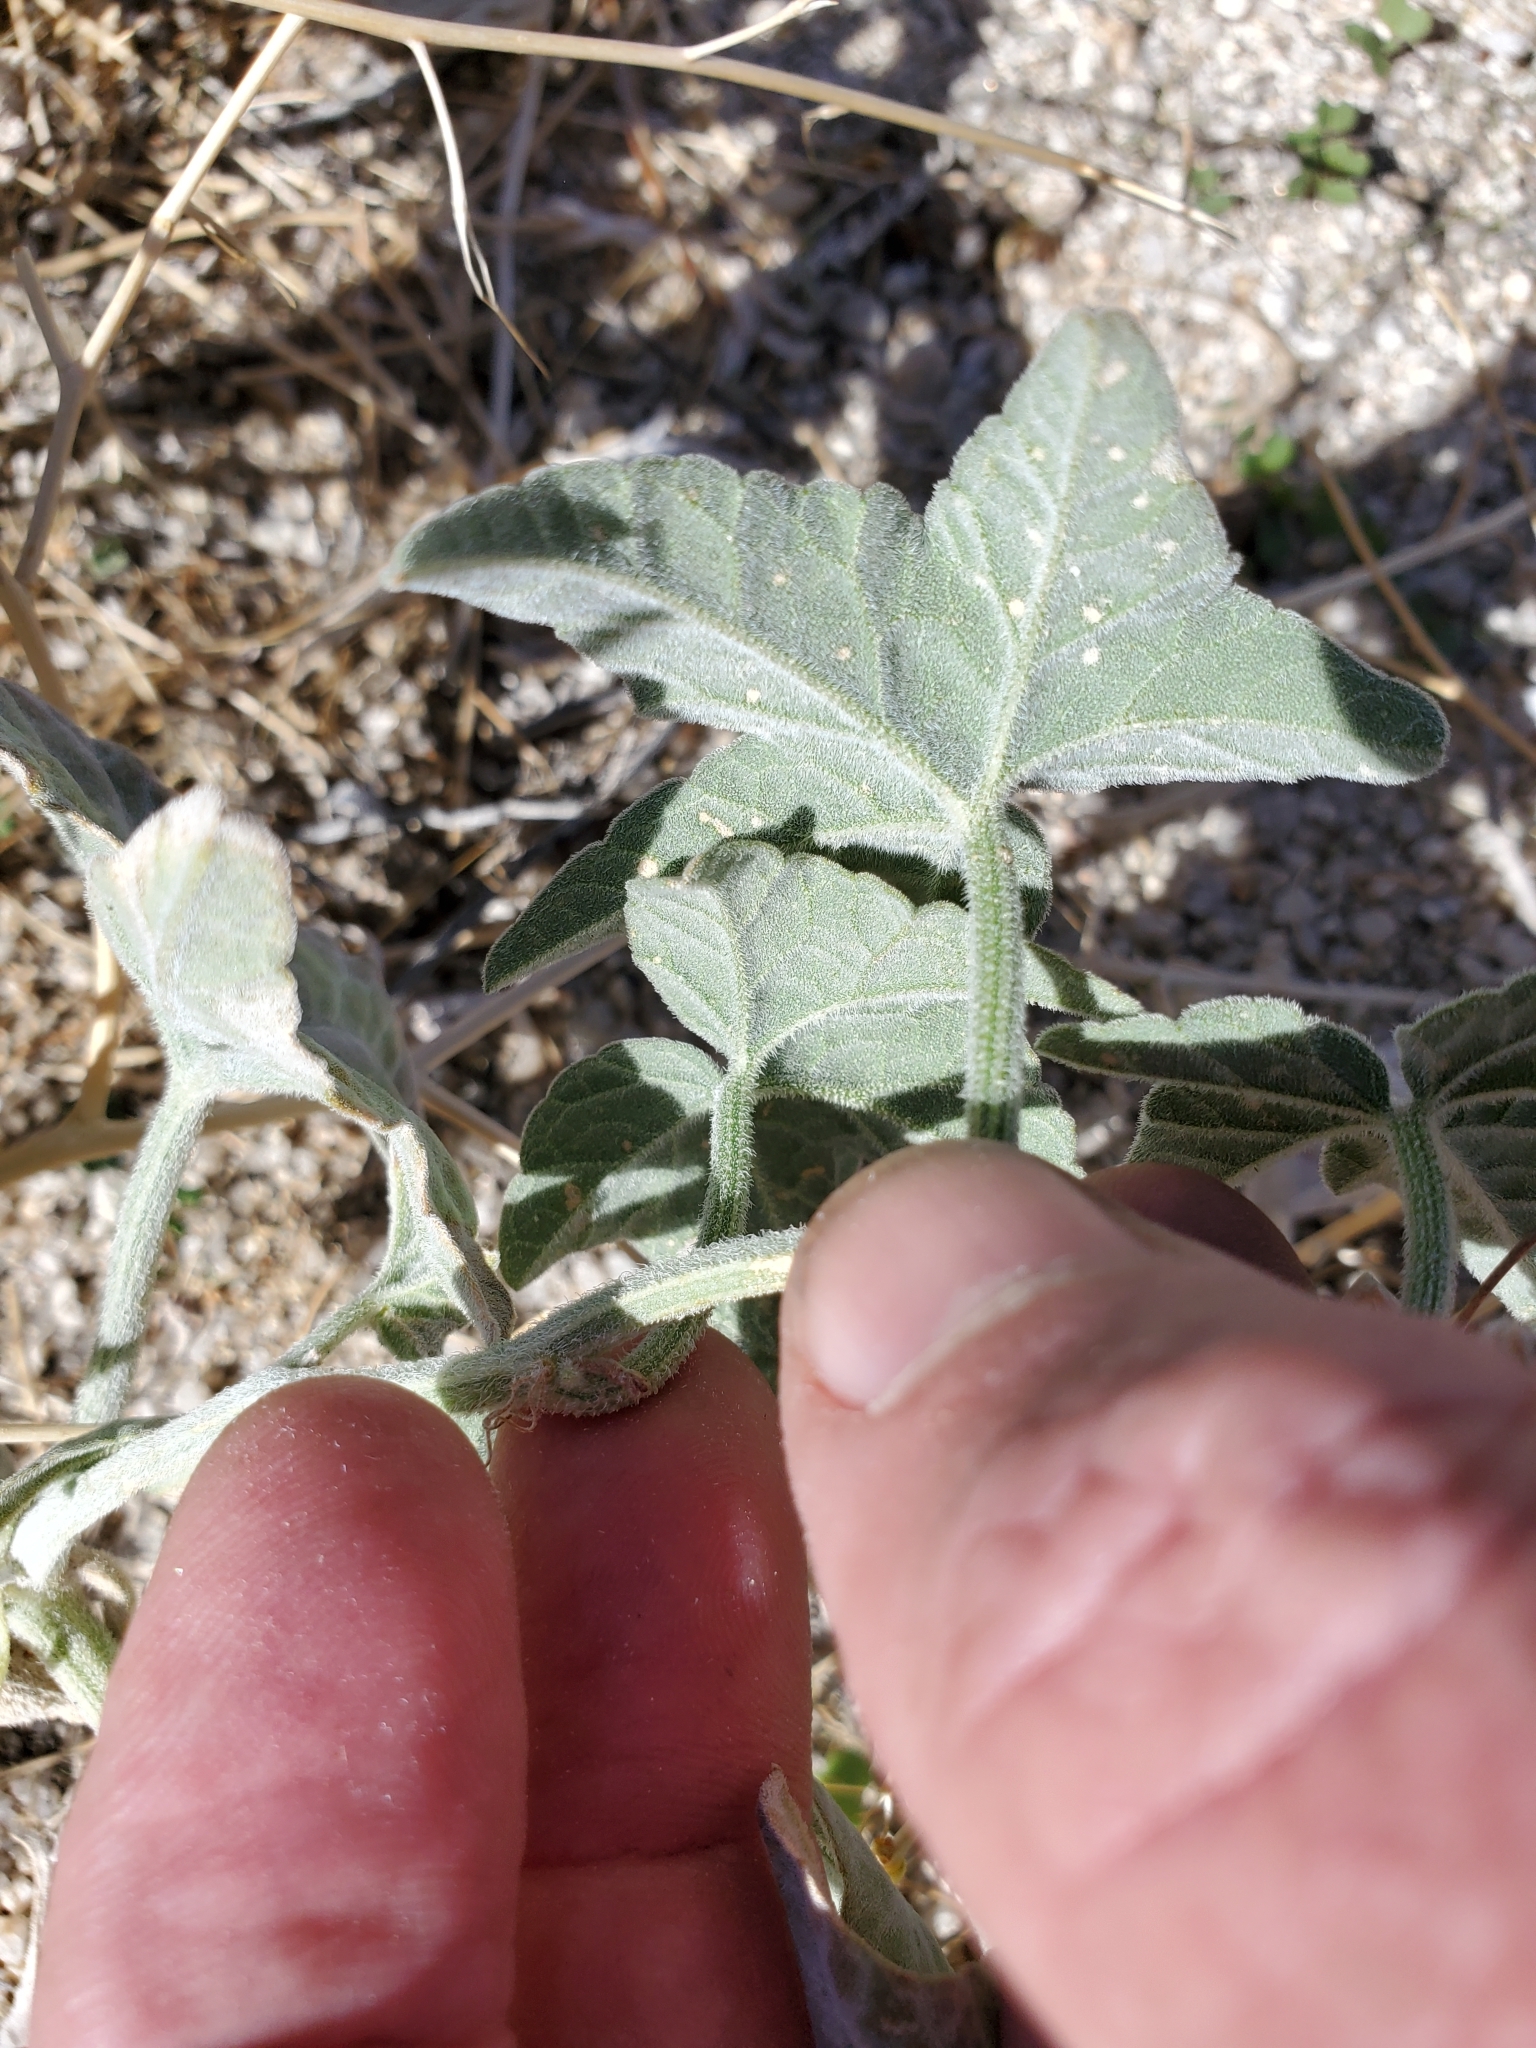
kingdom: Plantae
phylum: Tracheophyta
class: Magnoliopsida
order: Cucurbitales
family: Cucurbitaceae
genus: Cucurbita
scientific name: Cucurbita palmata
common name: Coyote-melon
